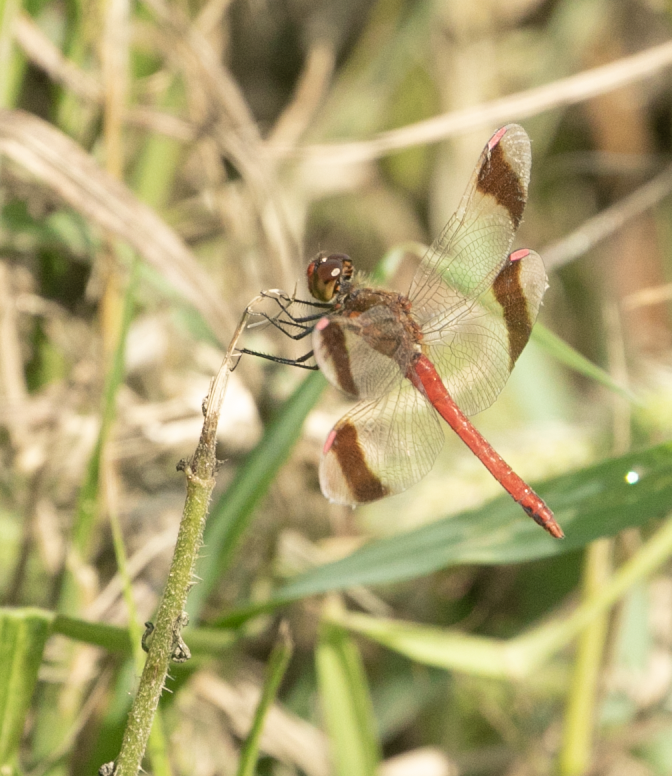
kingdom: Animalia
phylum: Arthropoda
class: Insecta
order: Odonata
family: Libellulidae
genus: Sympetrum
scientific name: Sympetrum pedemontanum
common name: Banded darter
